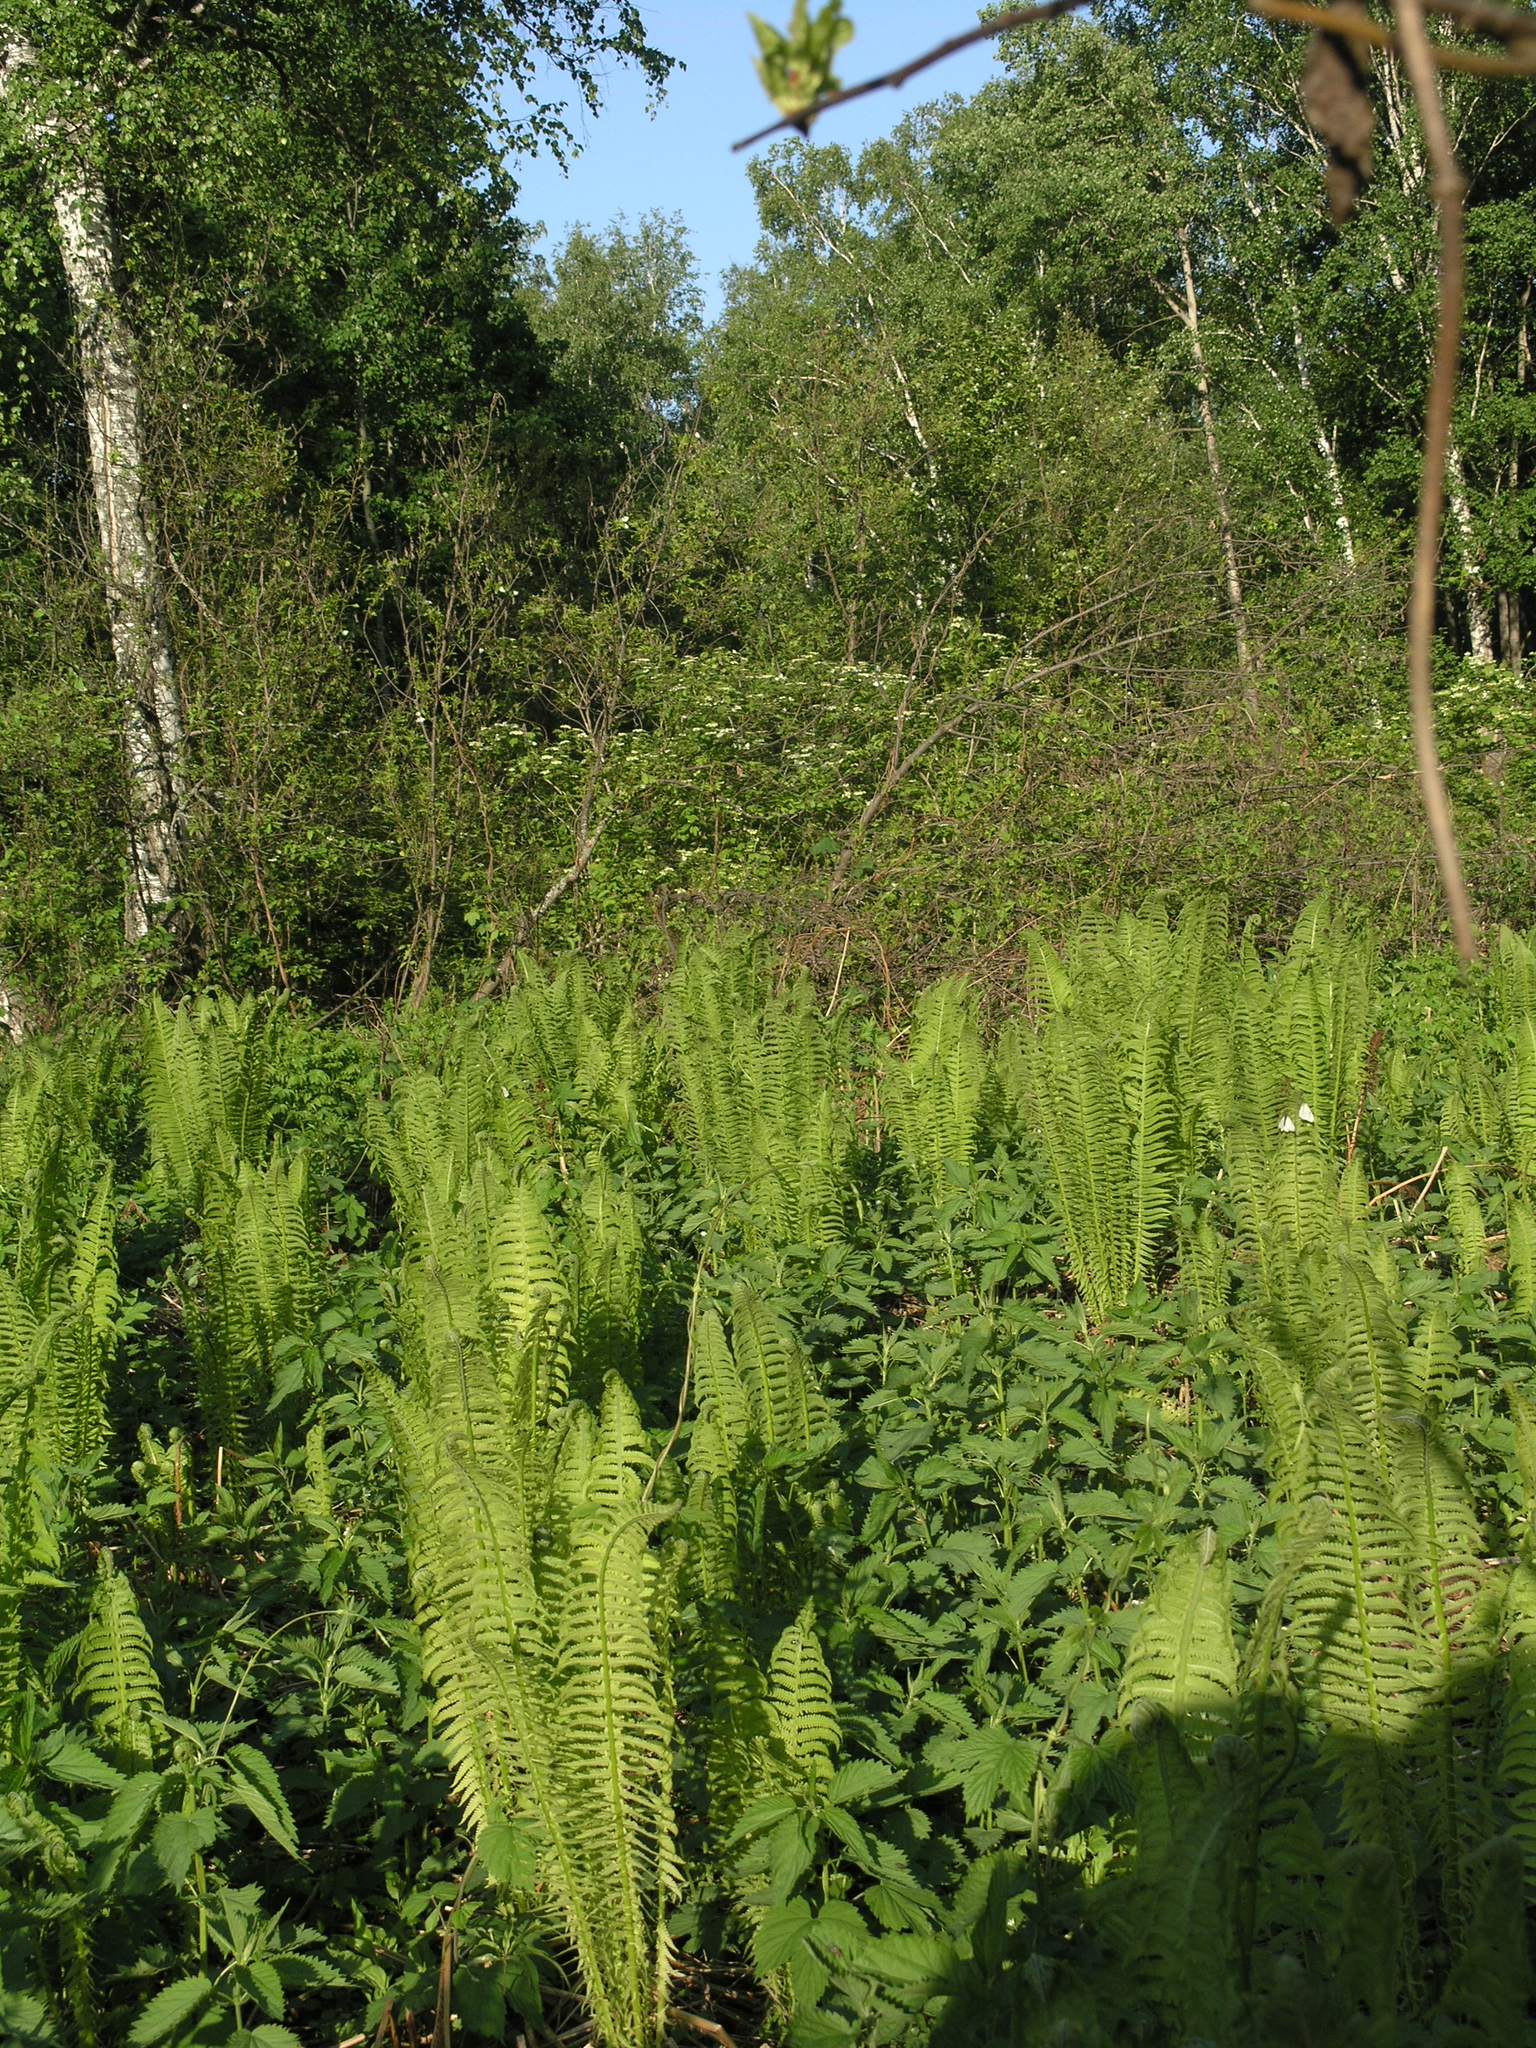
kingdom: Plantae
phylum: Tracheophyta
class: Polypodiopsida
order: Polypodiales
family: Onocleaceae
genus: Matteuccia
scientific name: Matteuccia struthiopteris
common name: Ostrich fern
